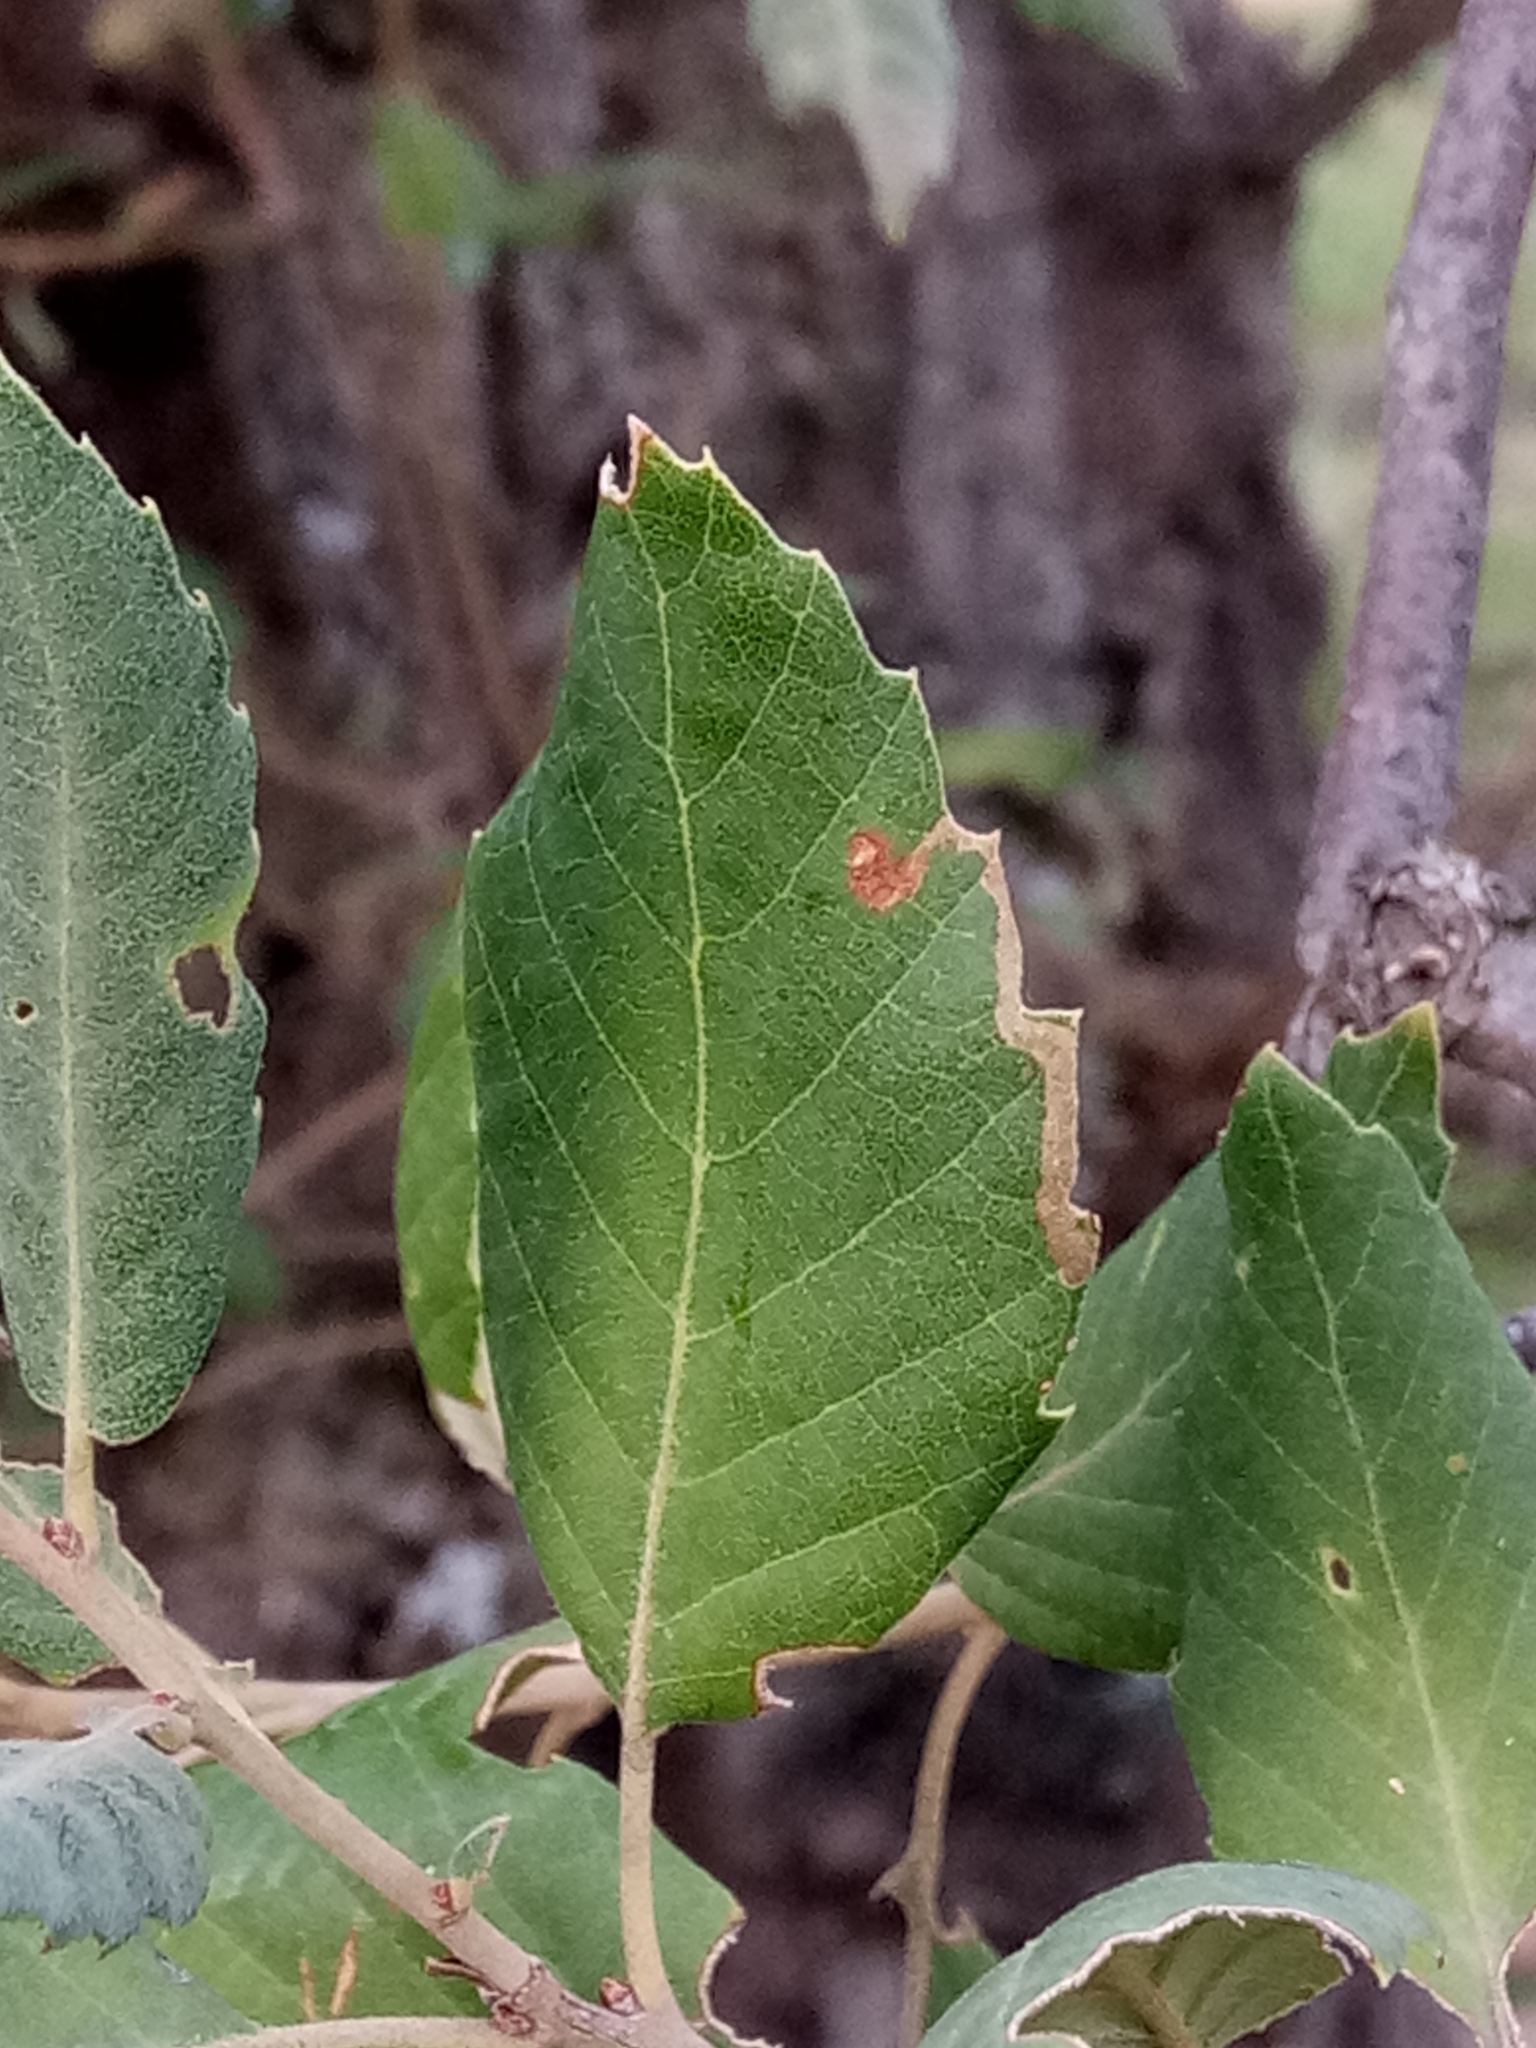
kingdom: Plantae
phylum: Tracheophyta
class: Magnoliopsida
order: Fagales
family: Fagaceae
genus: Quercus
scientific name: Quercus suber
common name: Cork oak
